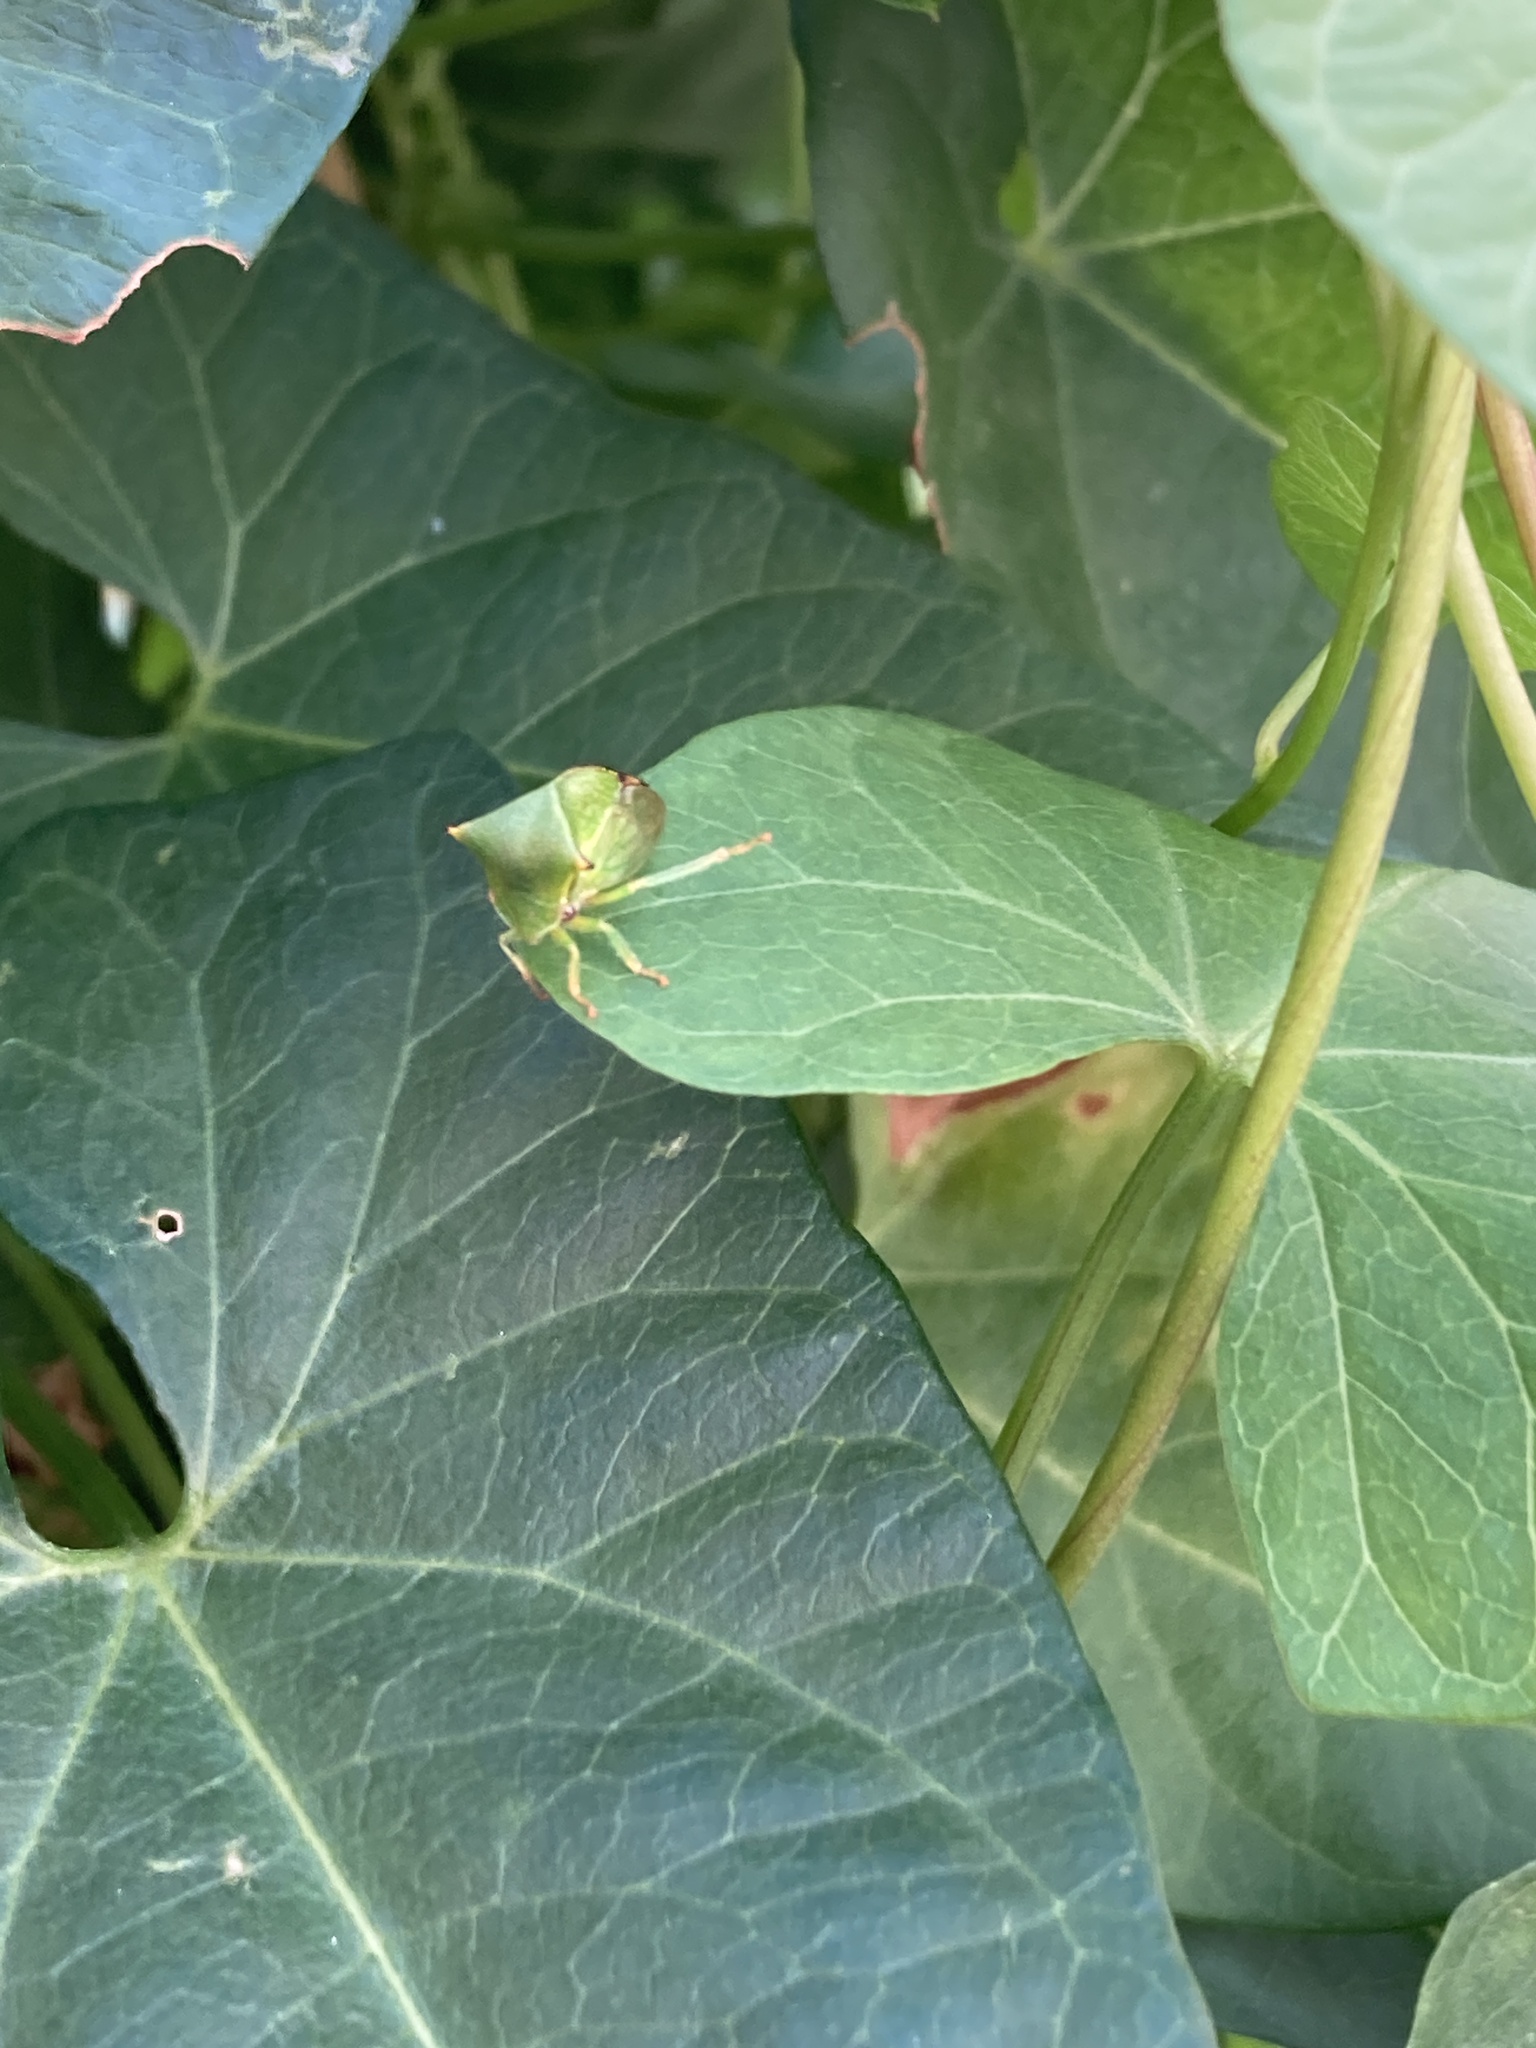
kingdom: Animalia
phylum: Arthropoda
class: Insecta
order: Hemiptera
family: Membracidae
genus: Stictocephala
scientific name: Stictocephala bisonia
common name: American buffalo treehopper
